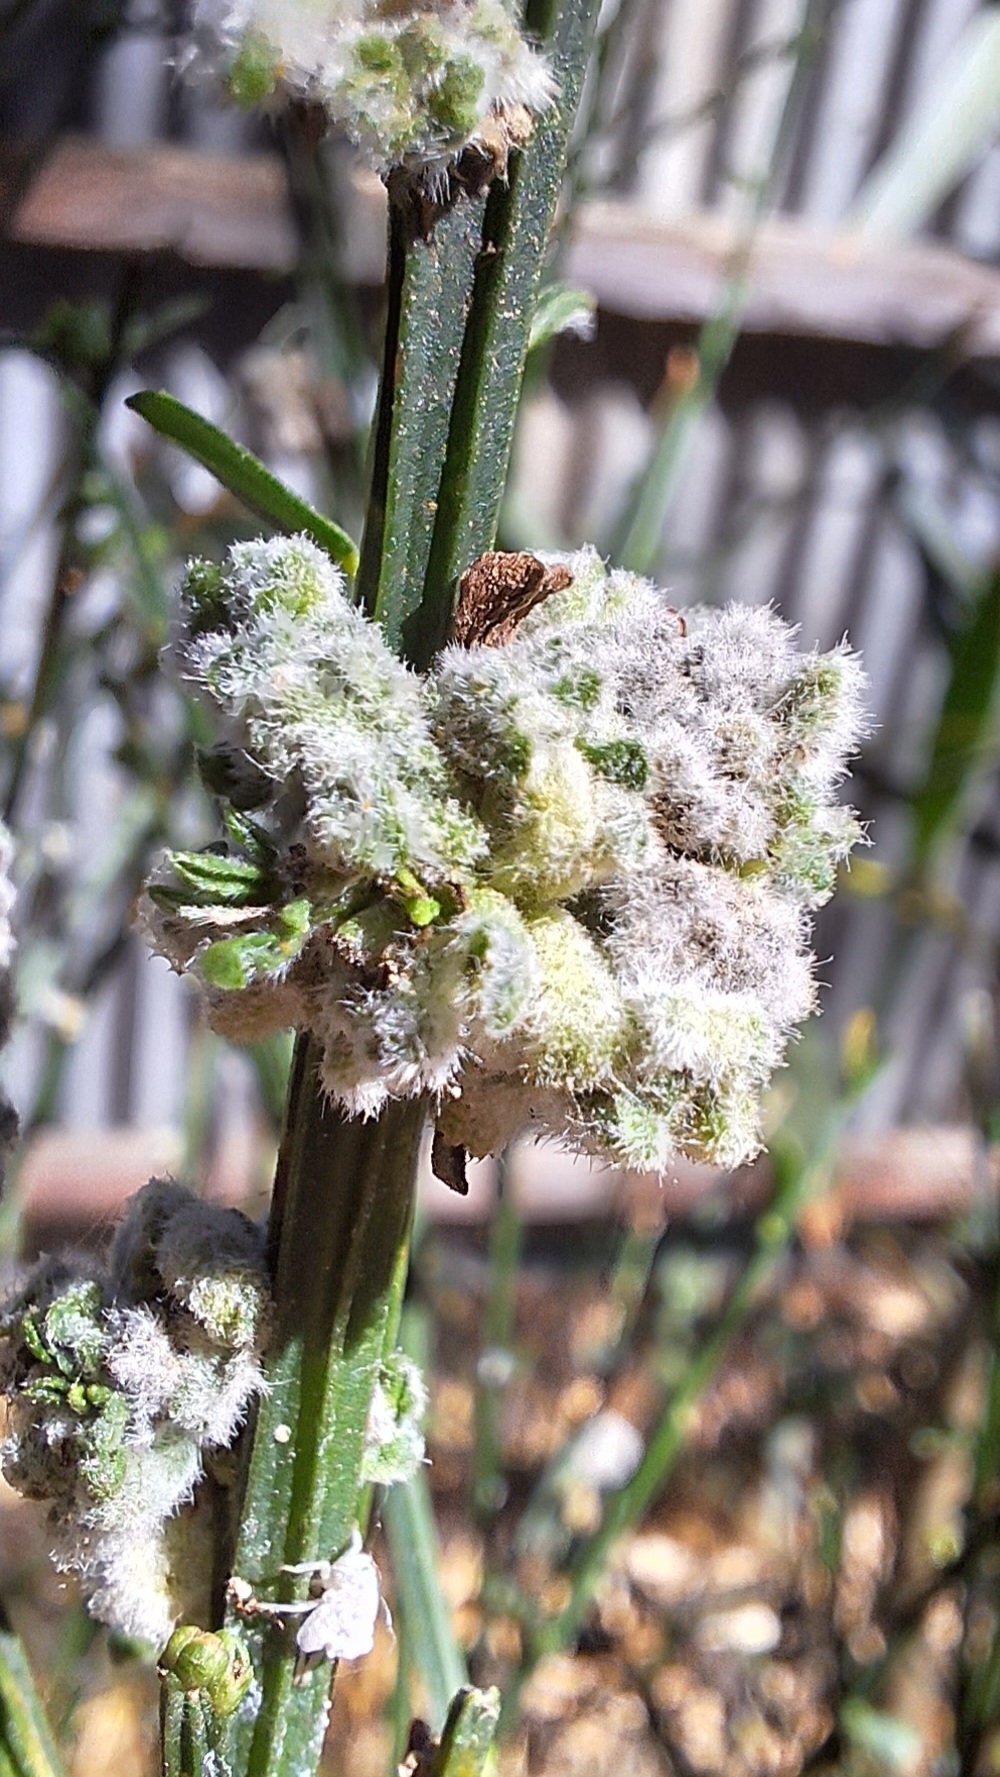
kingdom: Animalia
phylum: Arthropoda
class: Arachnida
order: Trombidiformes
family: Eriophyidae
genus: Aceria
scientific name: Aceria genistae
